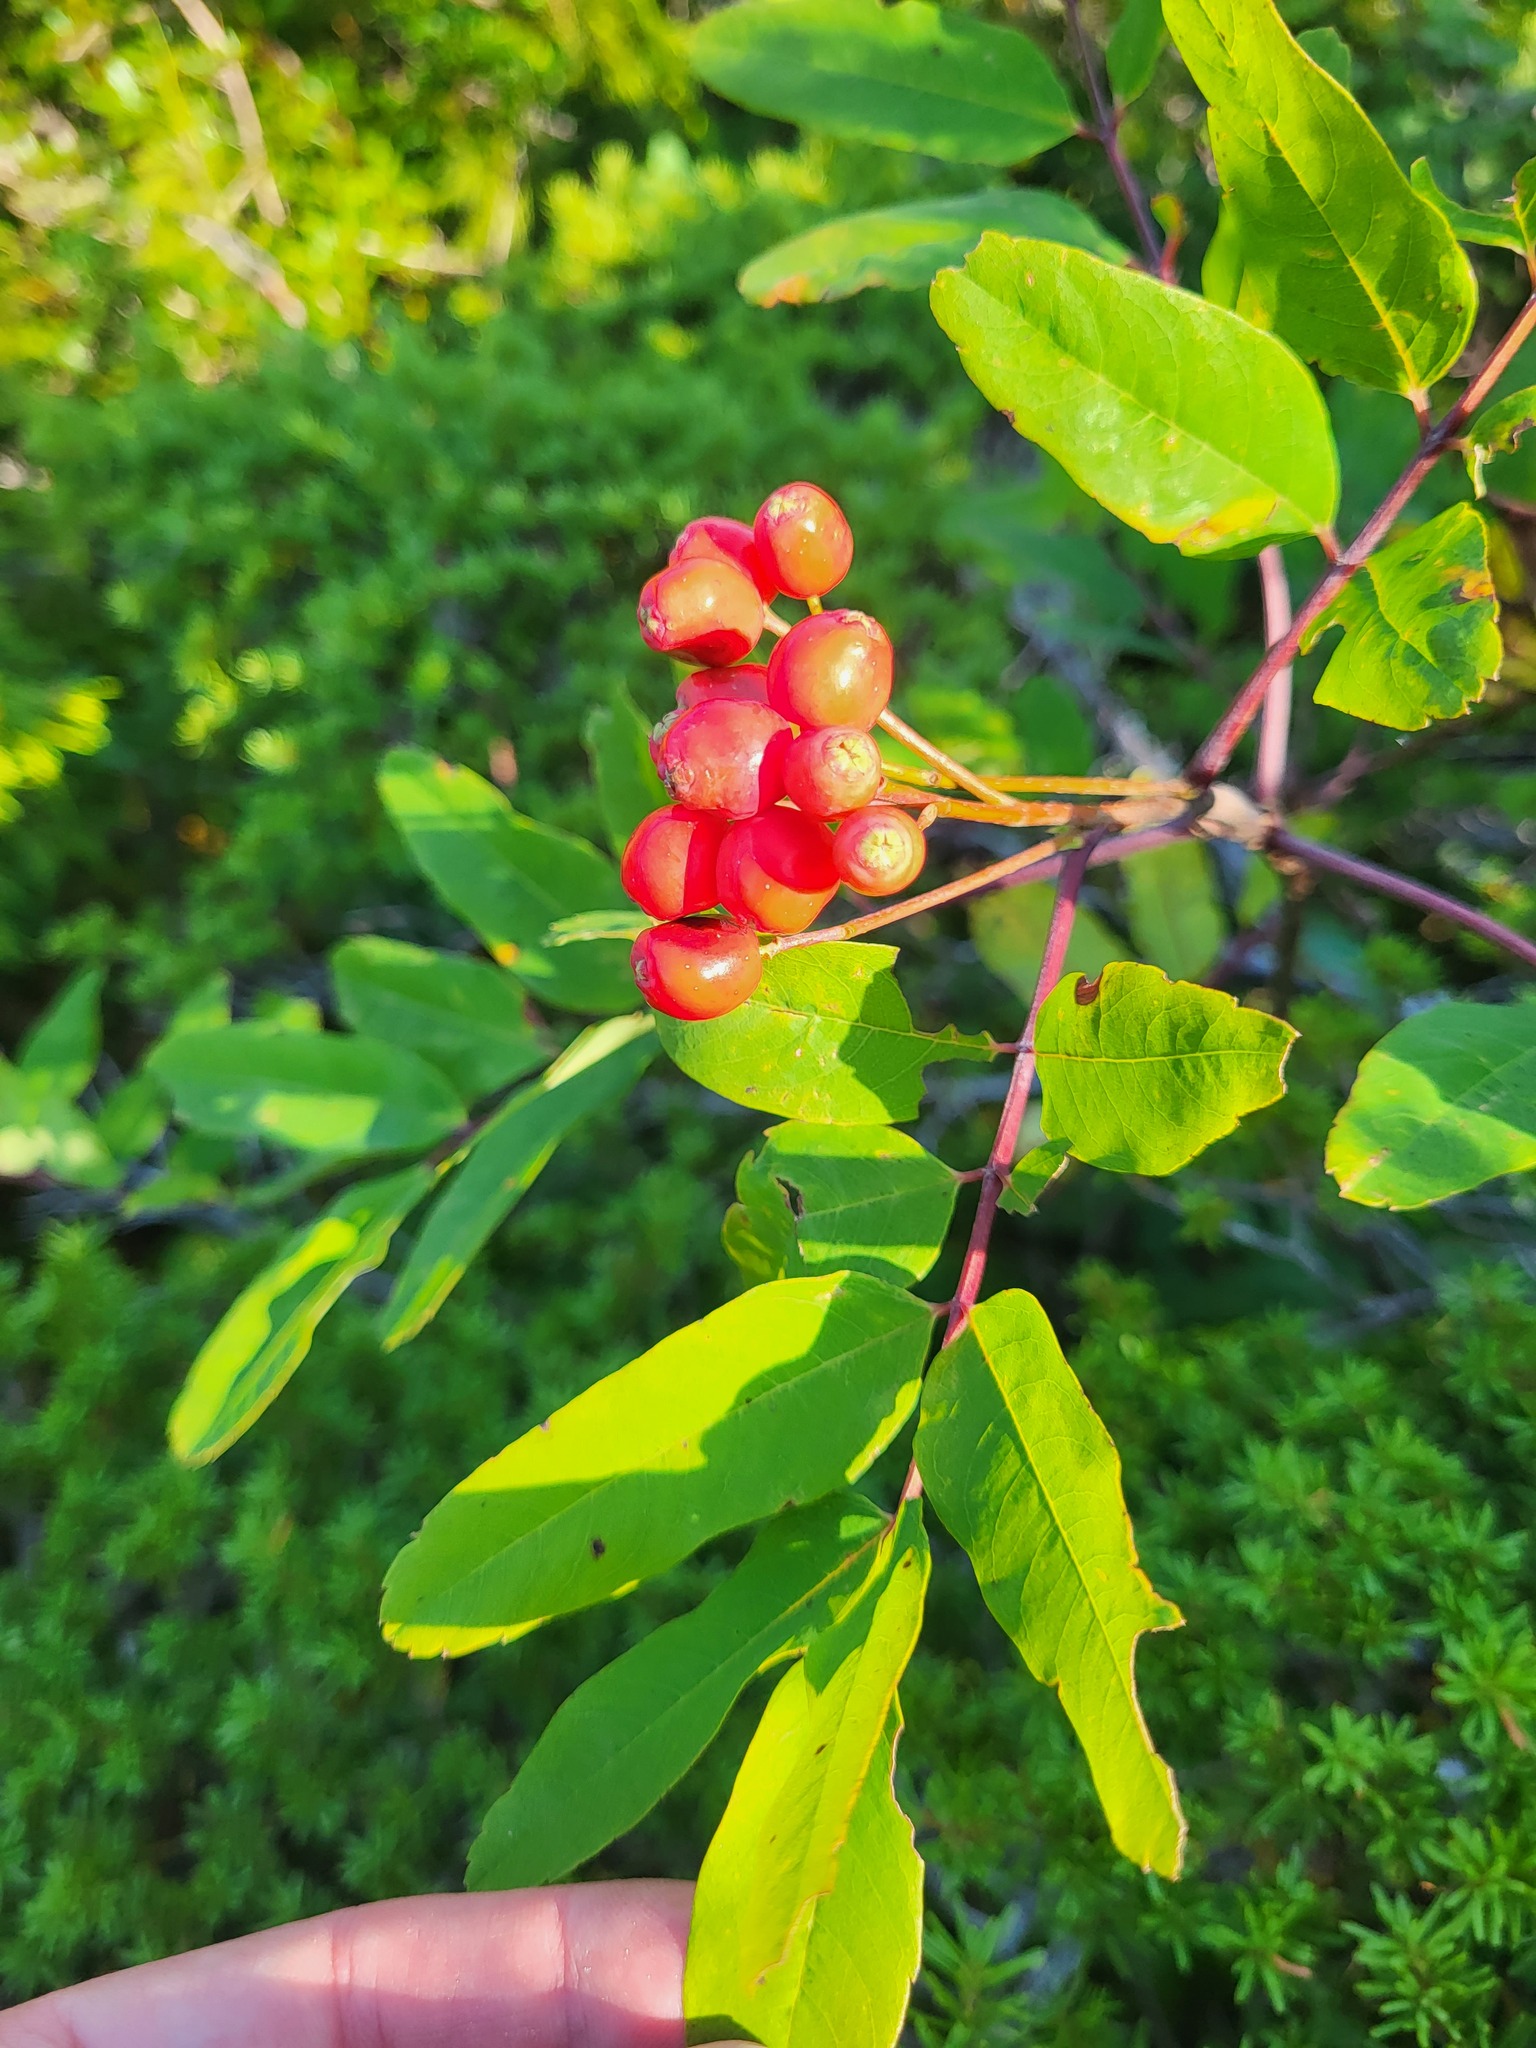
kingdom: Plantae
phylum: Tracheophyta
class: Magnoliopsida
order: Rosales
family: Rosaceae
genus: Sorbus
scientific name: Sorbus sitchensis
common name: Sitka mountain-ash
